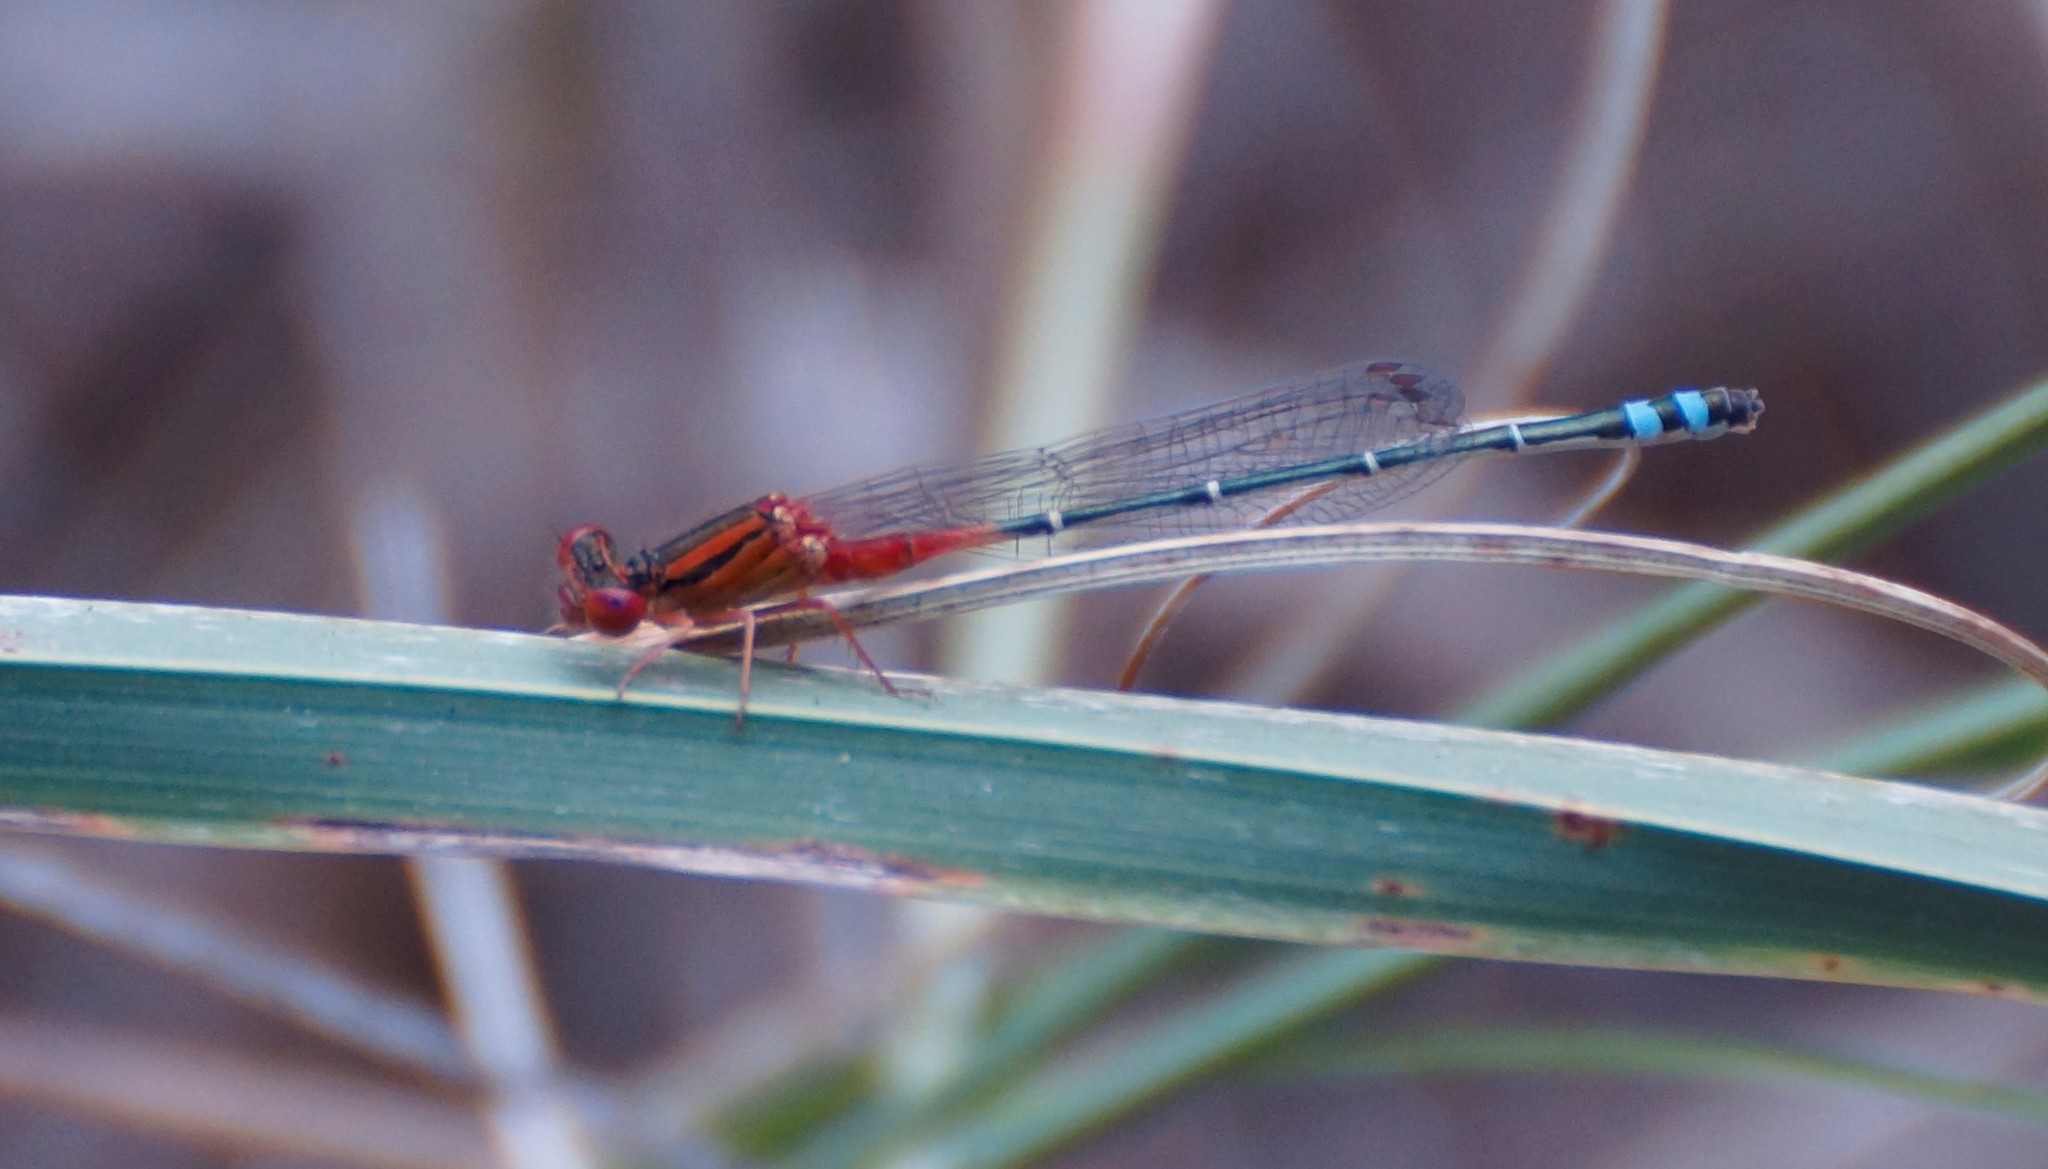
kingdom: Animalia
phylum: Arthropoda
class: Insecta
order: Odonata
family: Coenagrionidae
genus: Xanthagrion
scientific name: Xanthagrion erythroneurum
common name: Red and blue damsel
